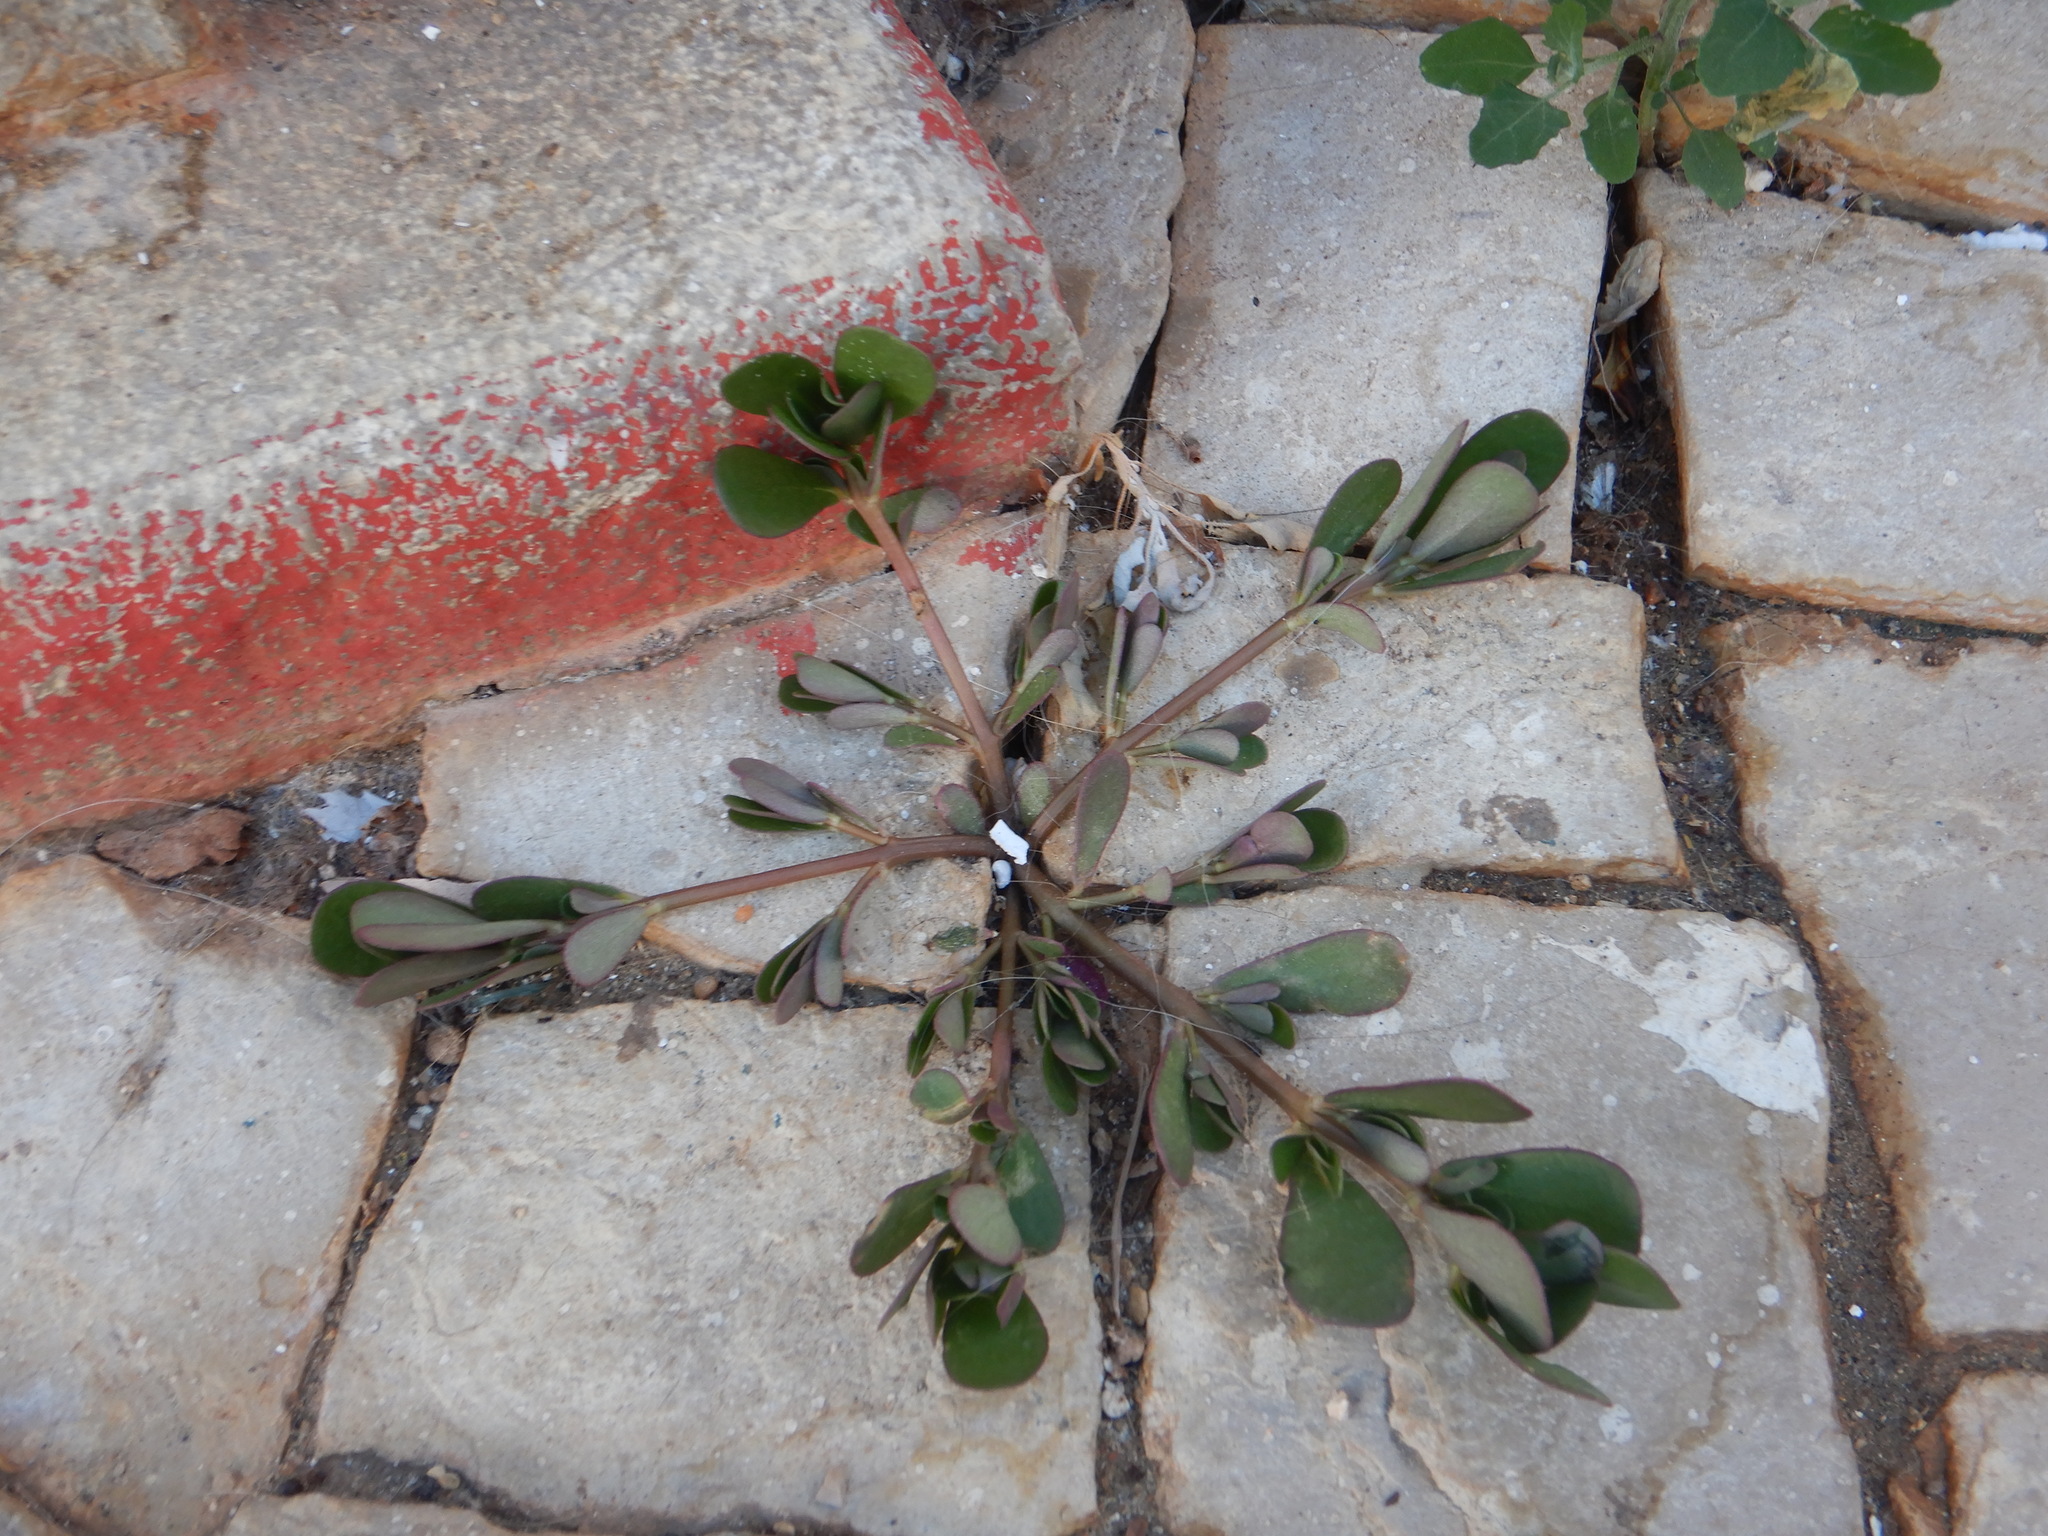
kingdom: Plantae
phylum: Tracheophyta
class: Magnoliopsida
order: Caryophyllales
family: Portulacaceae
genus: Portulaca
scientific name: Portulaca oleracea
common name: Common purslane
